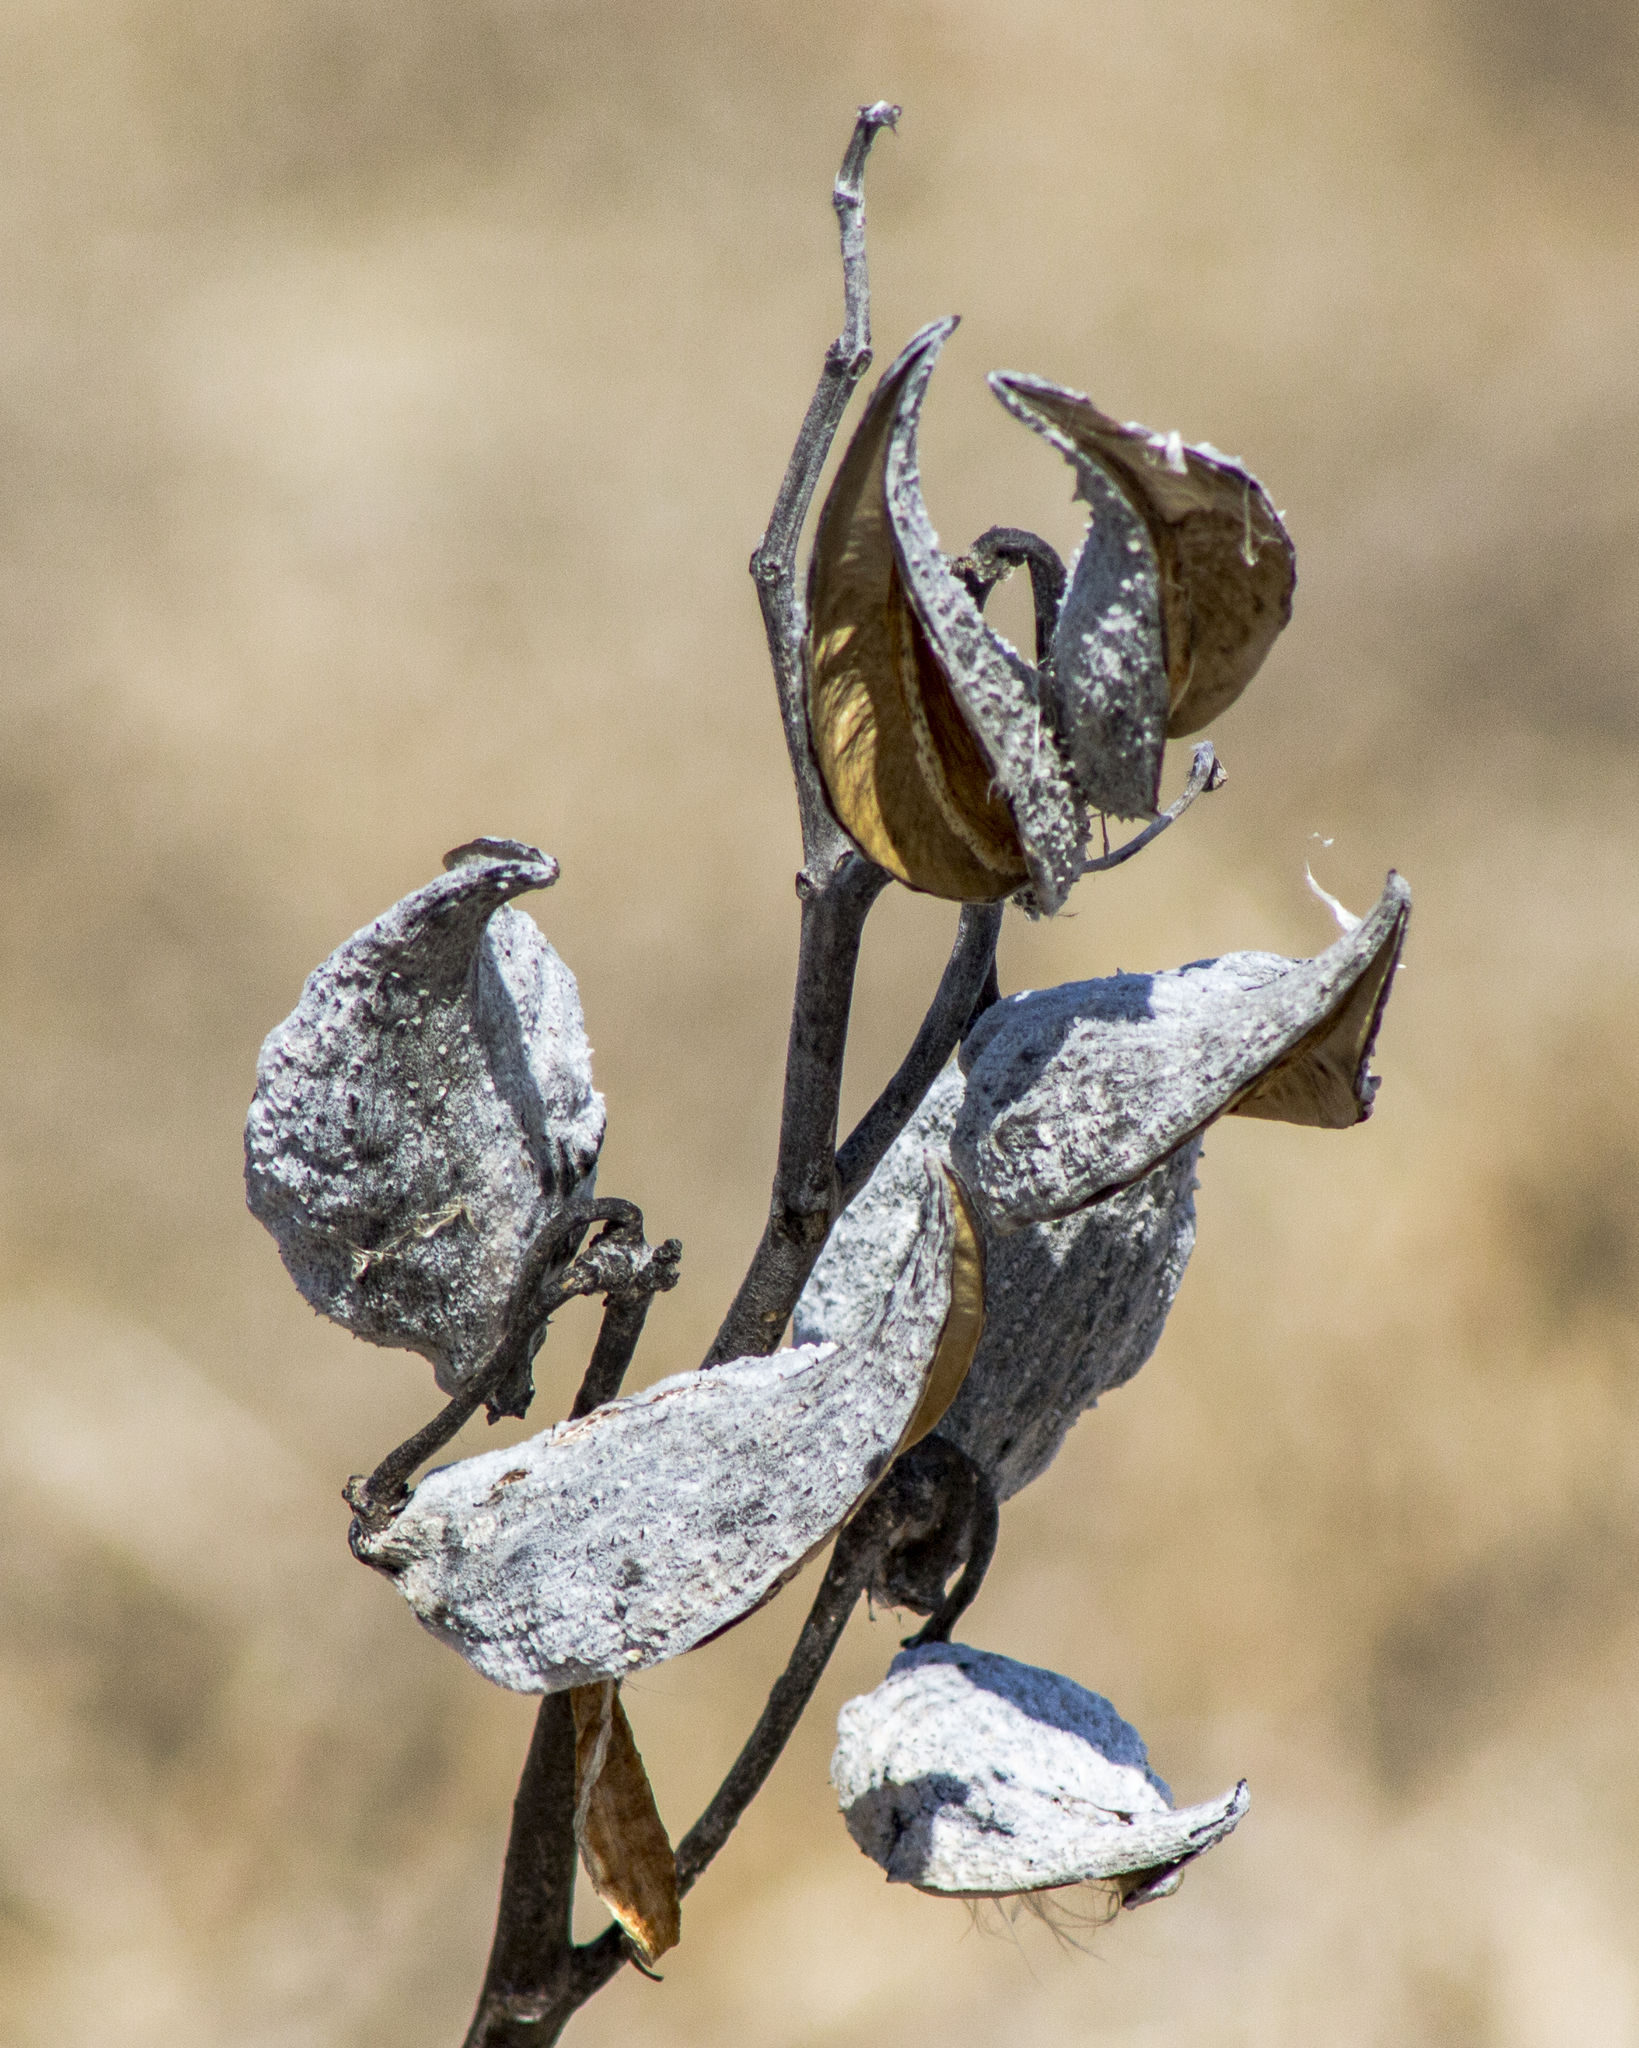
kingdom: Plantae
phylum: Tracheophyta
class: Magnoliopsida
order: Gentianales
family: Apocynaceae
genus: Asclepias
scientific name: Asclepias syriaca
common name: Common milkweed
